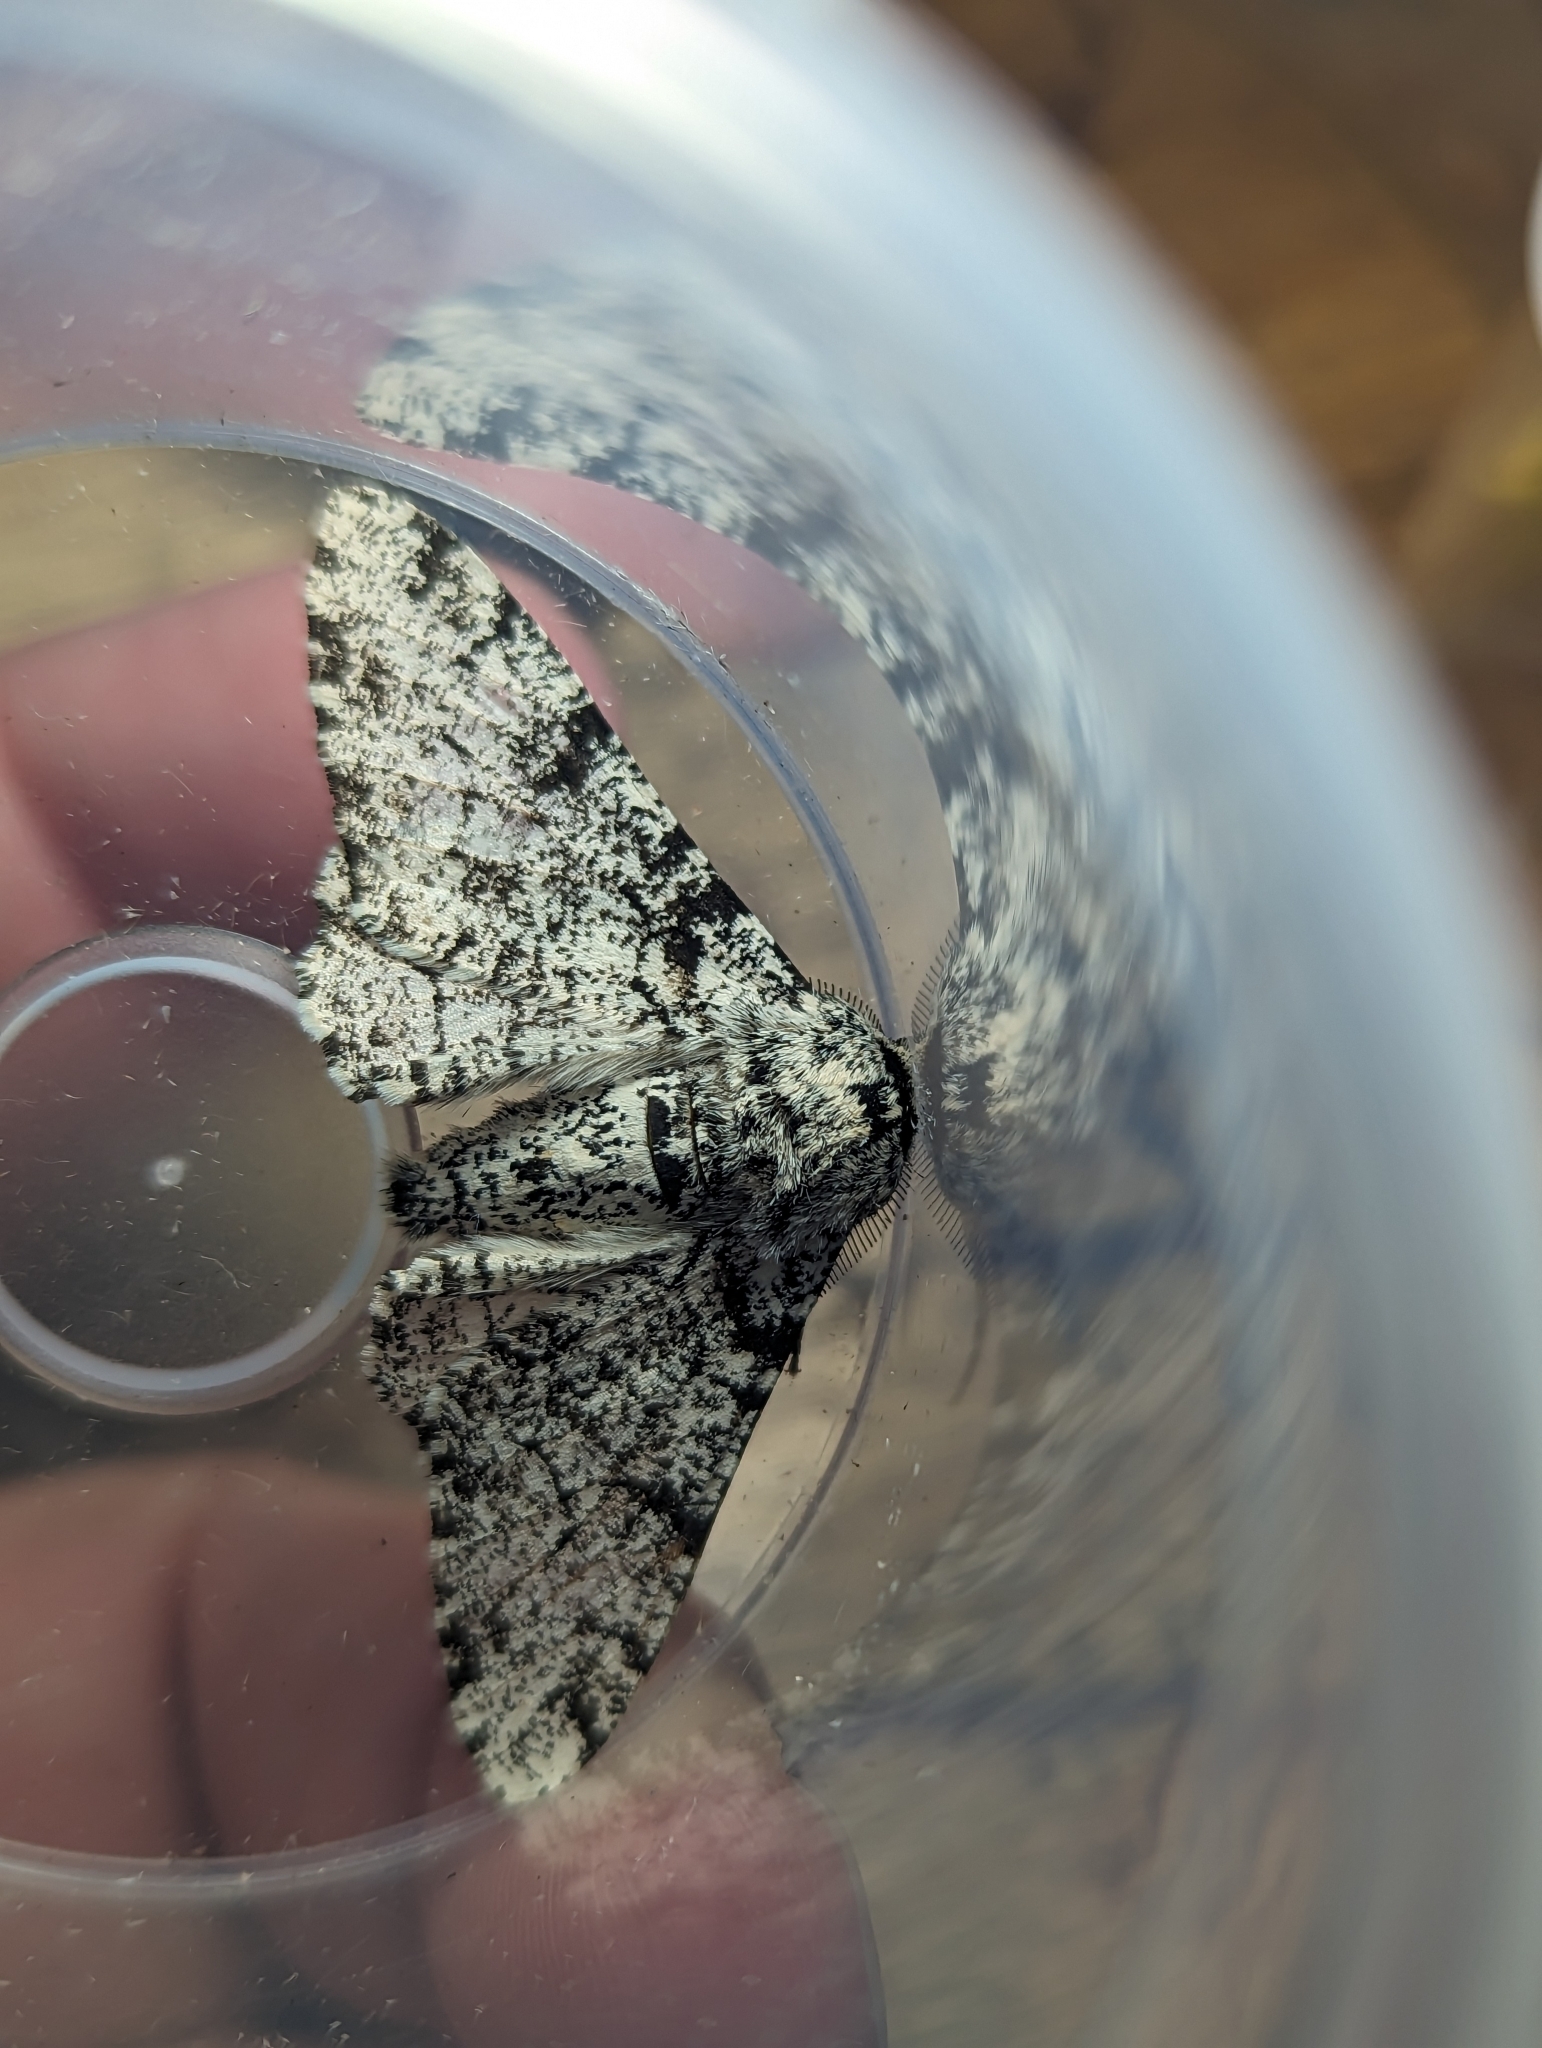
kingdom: Animalia
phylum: Arthropoda
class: Insecta
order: Lepidoptera
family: Geometridae
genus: Biston
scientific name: Biston betularia
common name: Peppered moth
